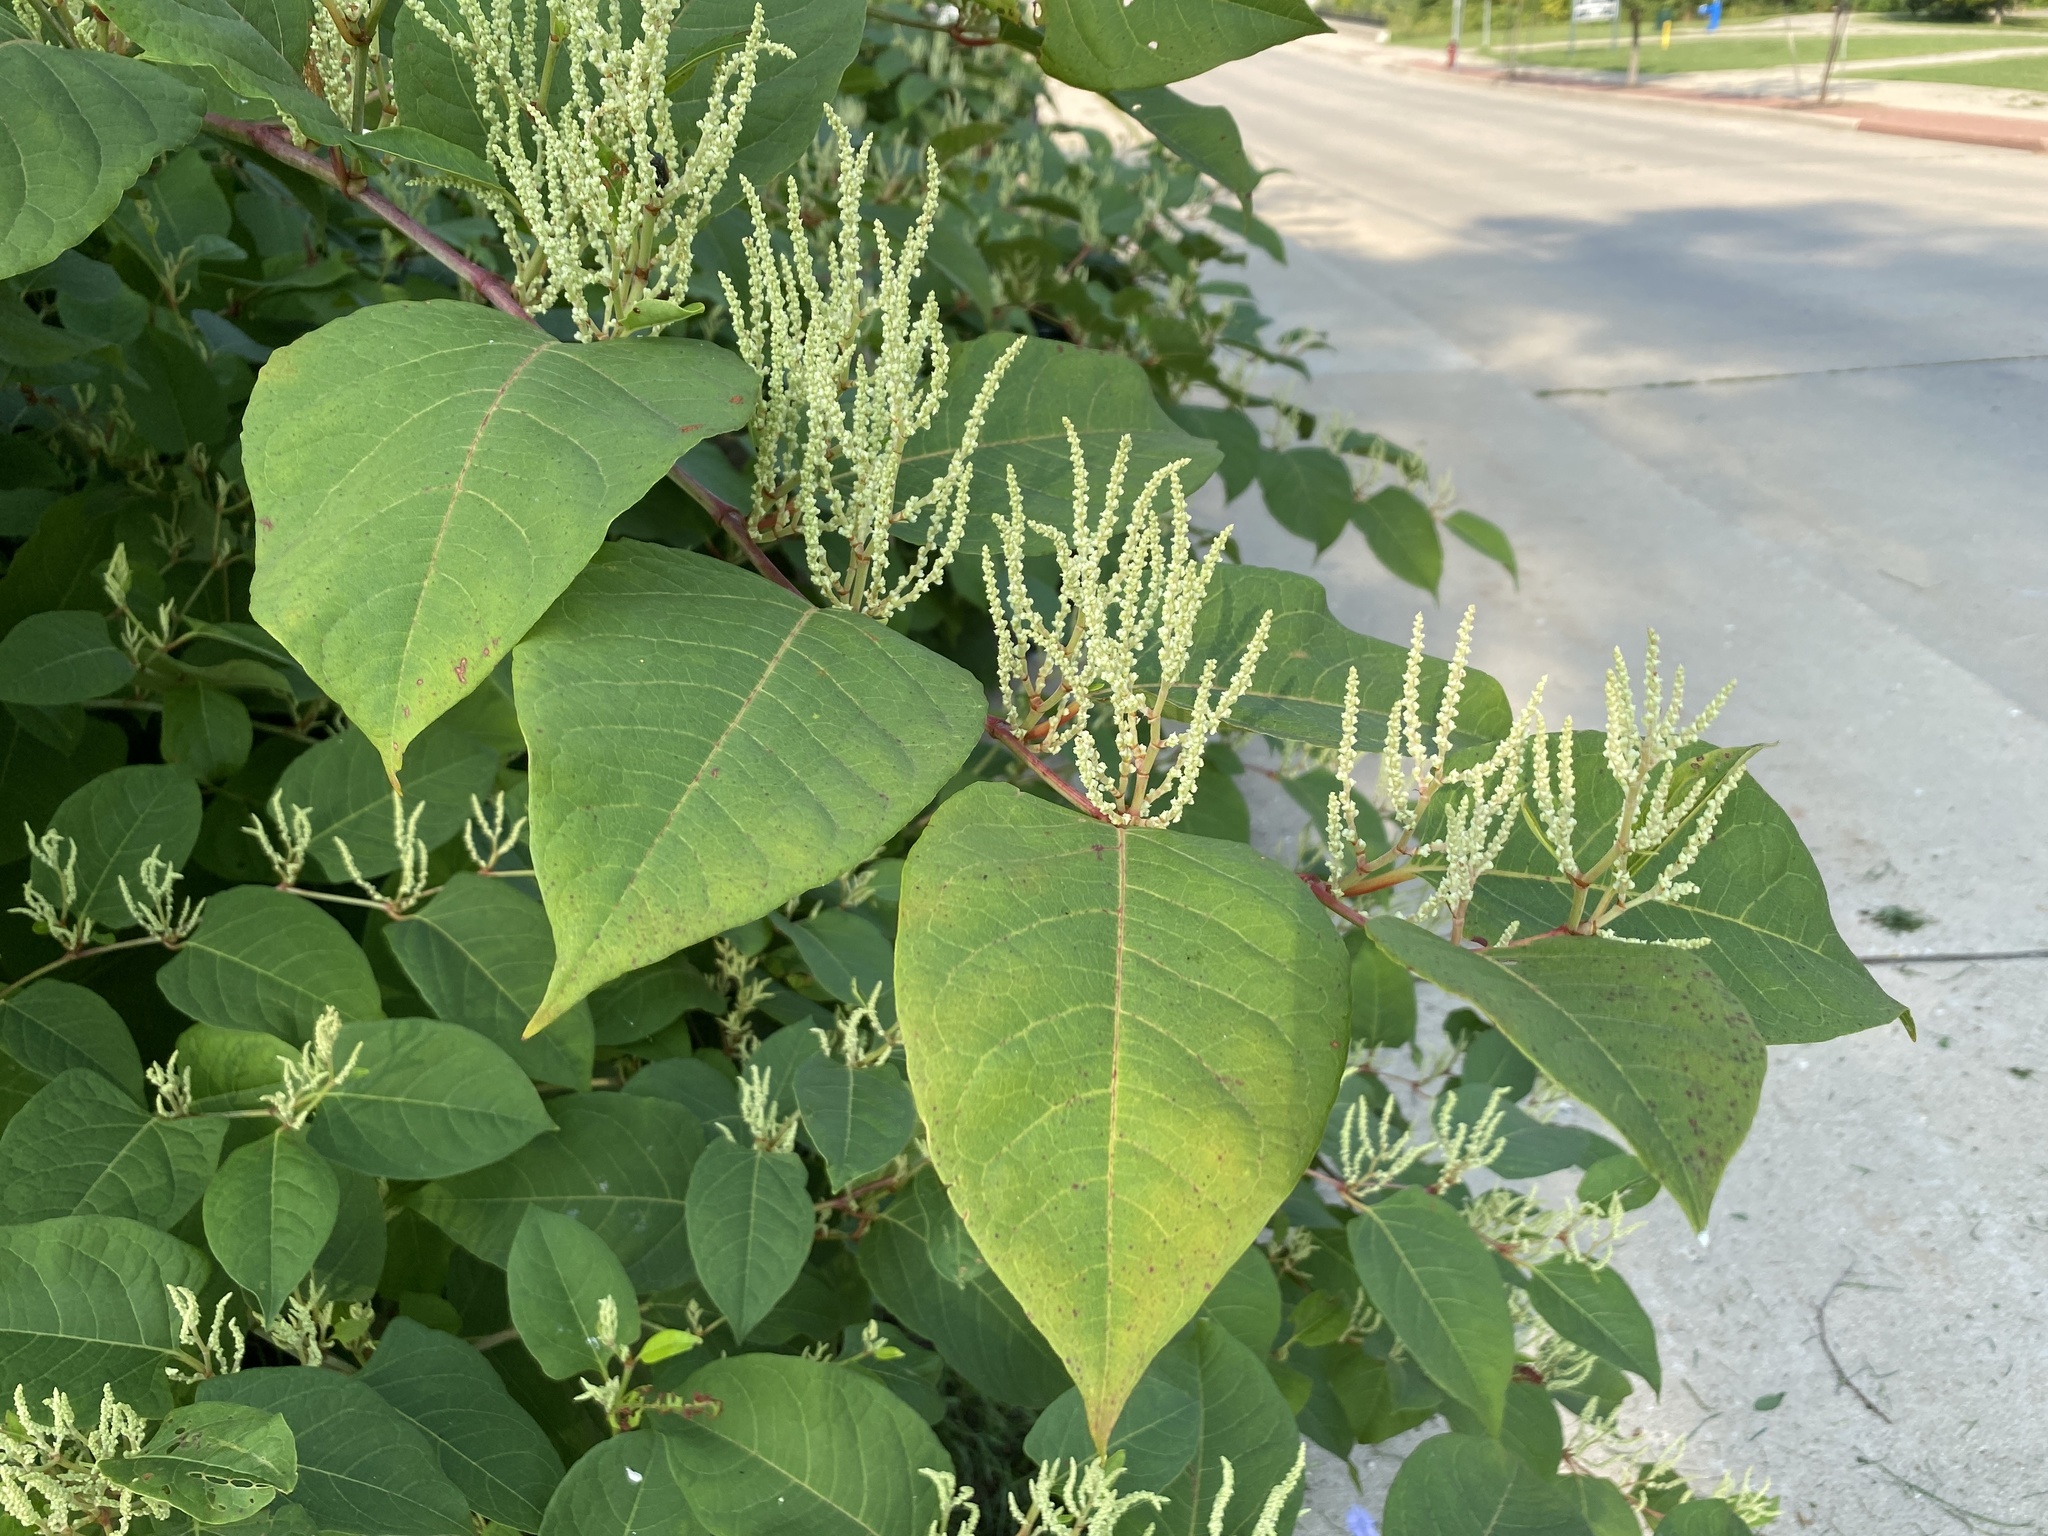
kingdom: Plantae
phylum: Tracheophyta
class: Magnoliopsida
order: Caryophyllales
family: Polygonaceae
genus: Reynoutria
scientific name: Reynoutria japonica
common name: Japanese knotweed
